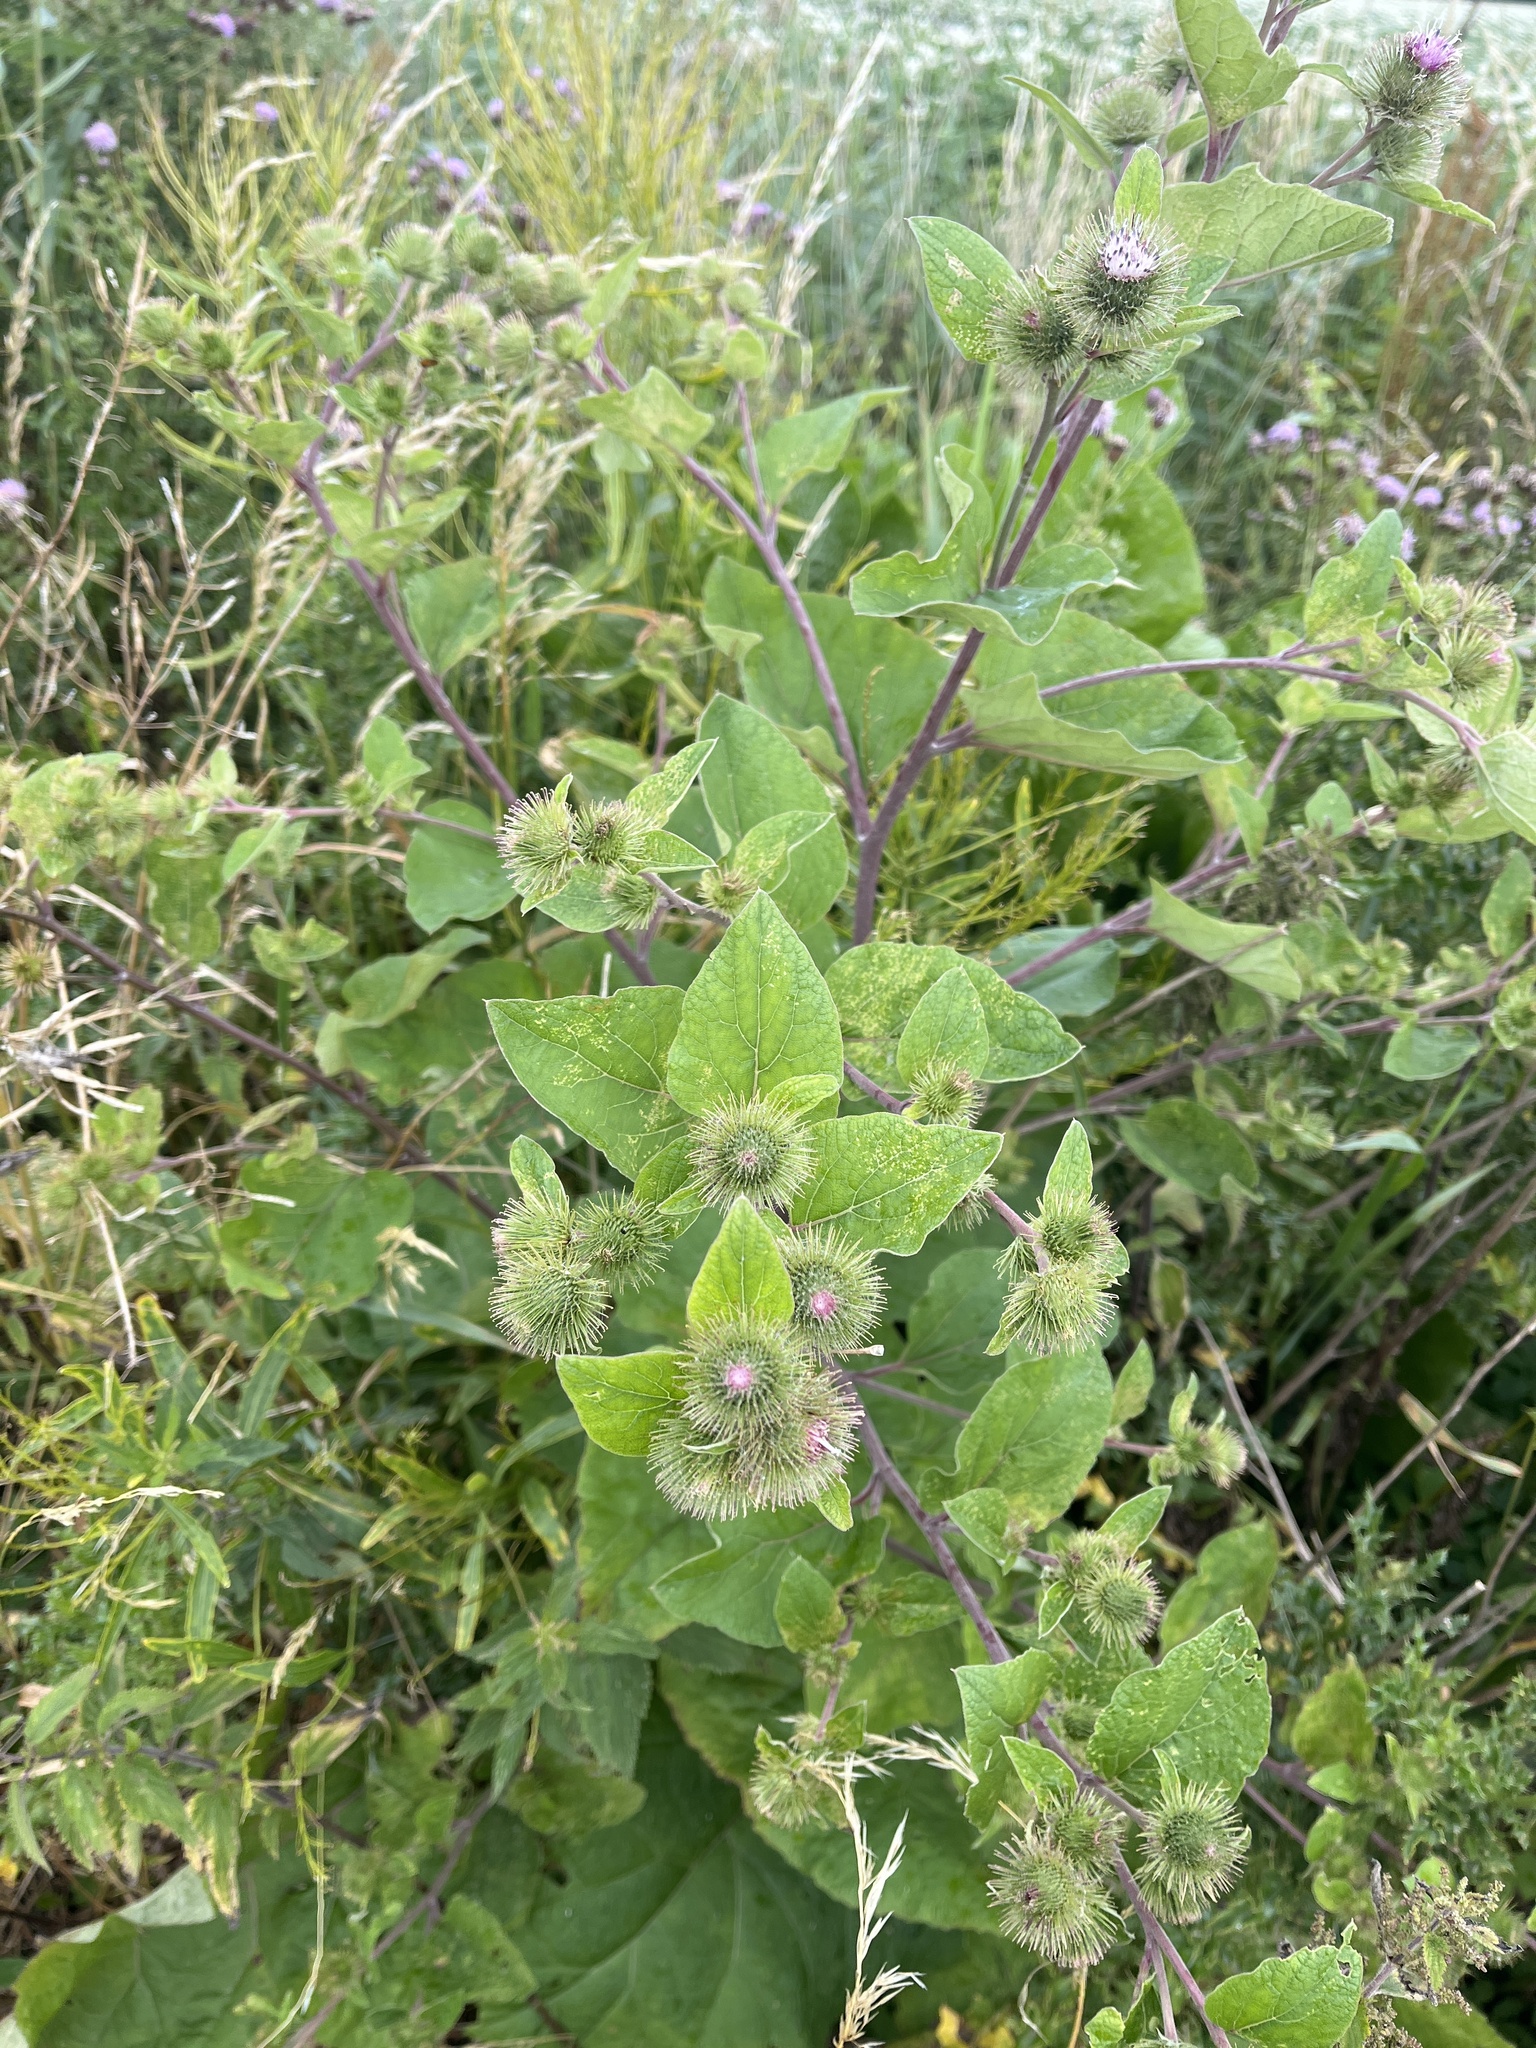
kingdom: Plantae
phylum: Tracheophyta
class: Magnoliopsida
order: Asterales
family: Asteraceae
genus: Arctium
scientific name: Arctium minus
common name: Lesser burdock
